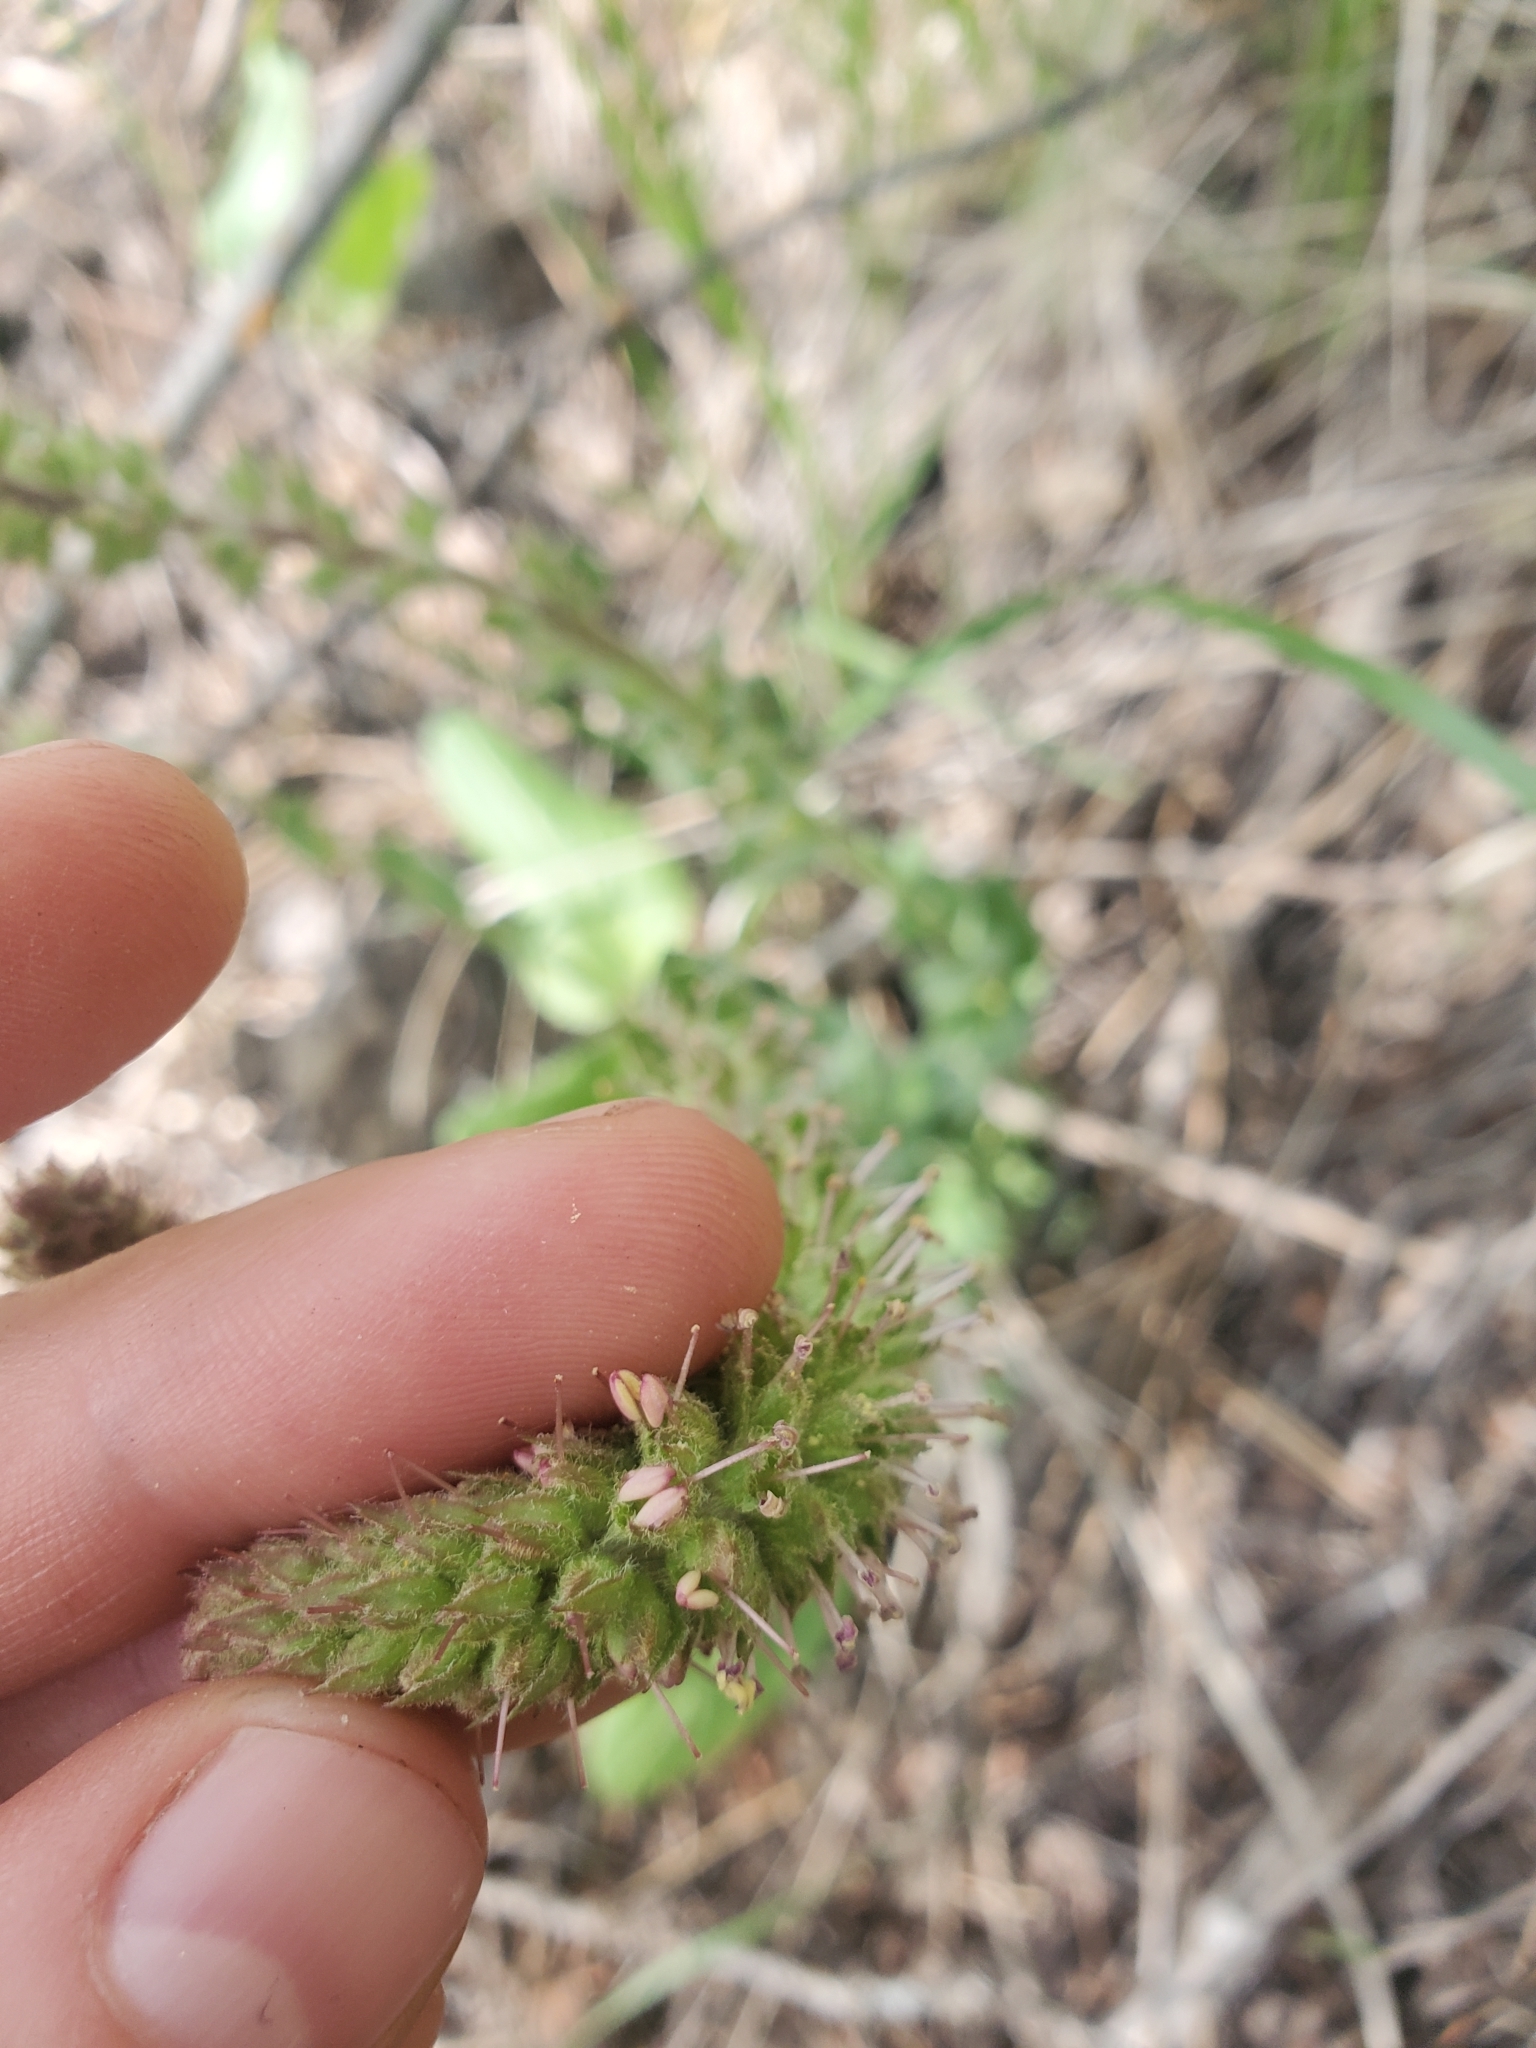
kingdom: Plantae
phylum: Tracheophyta
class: Magnoliopsida
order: Lamiales
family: Plantaginaceae
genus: Synthyris
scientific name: Synthyris wyomingensis
